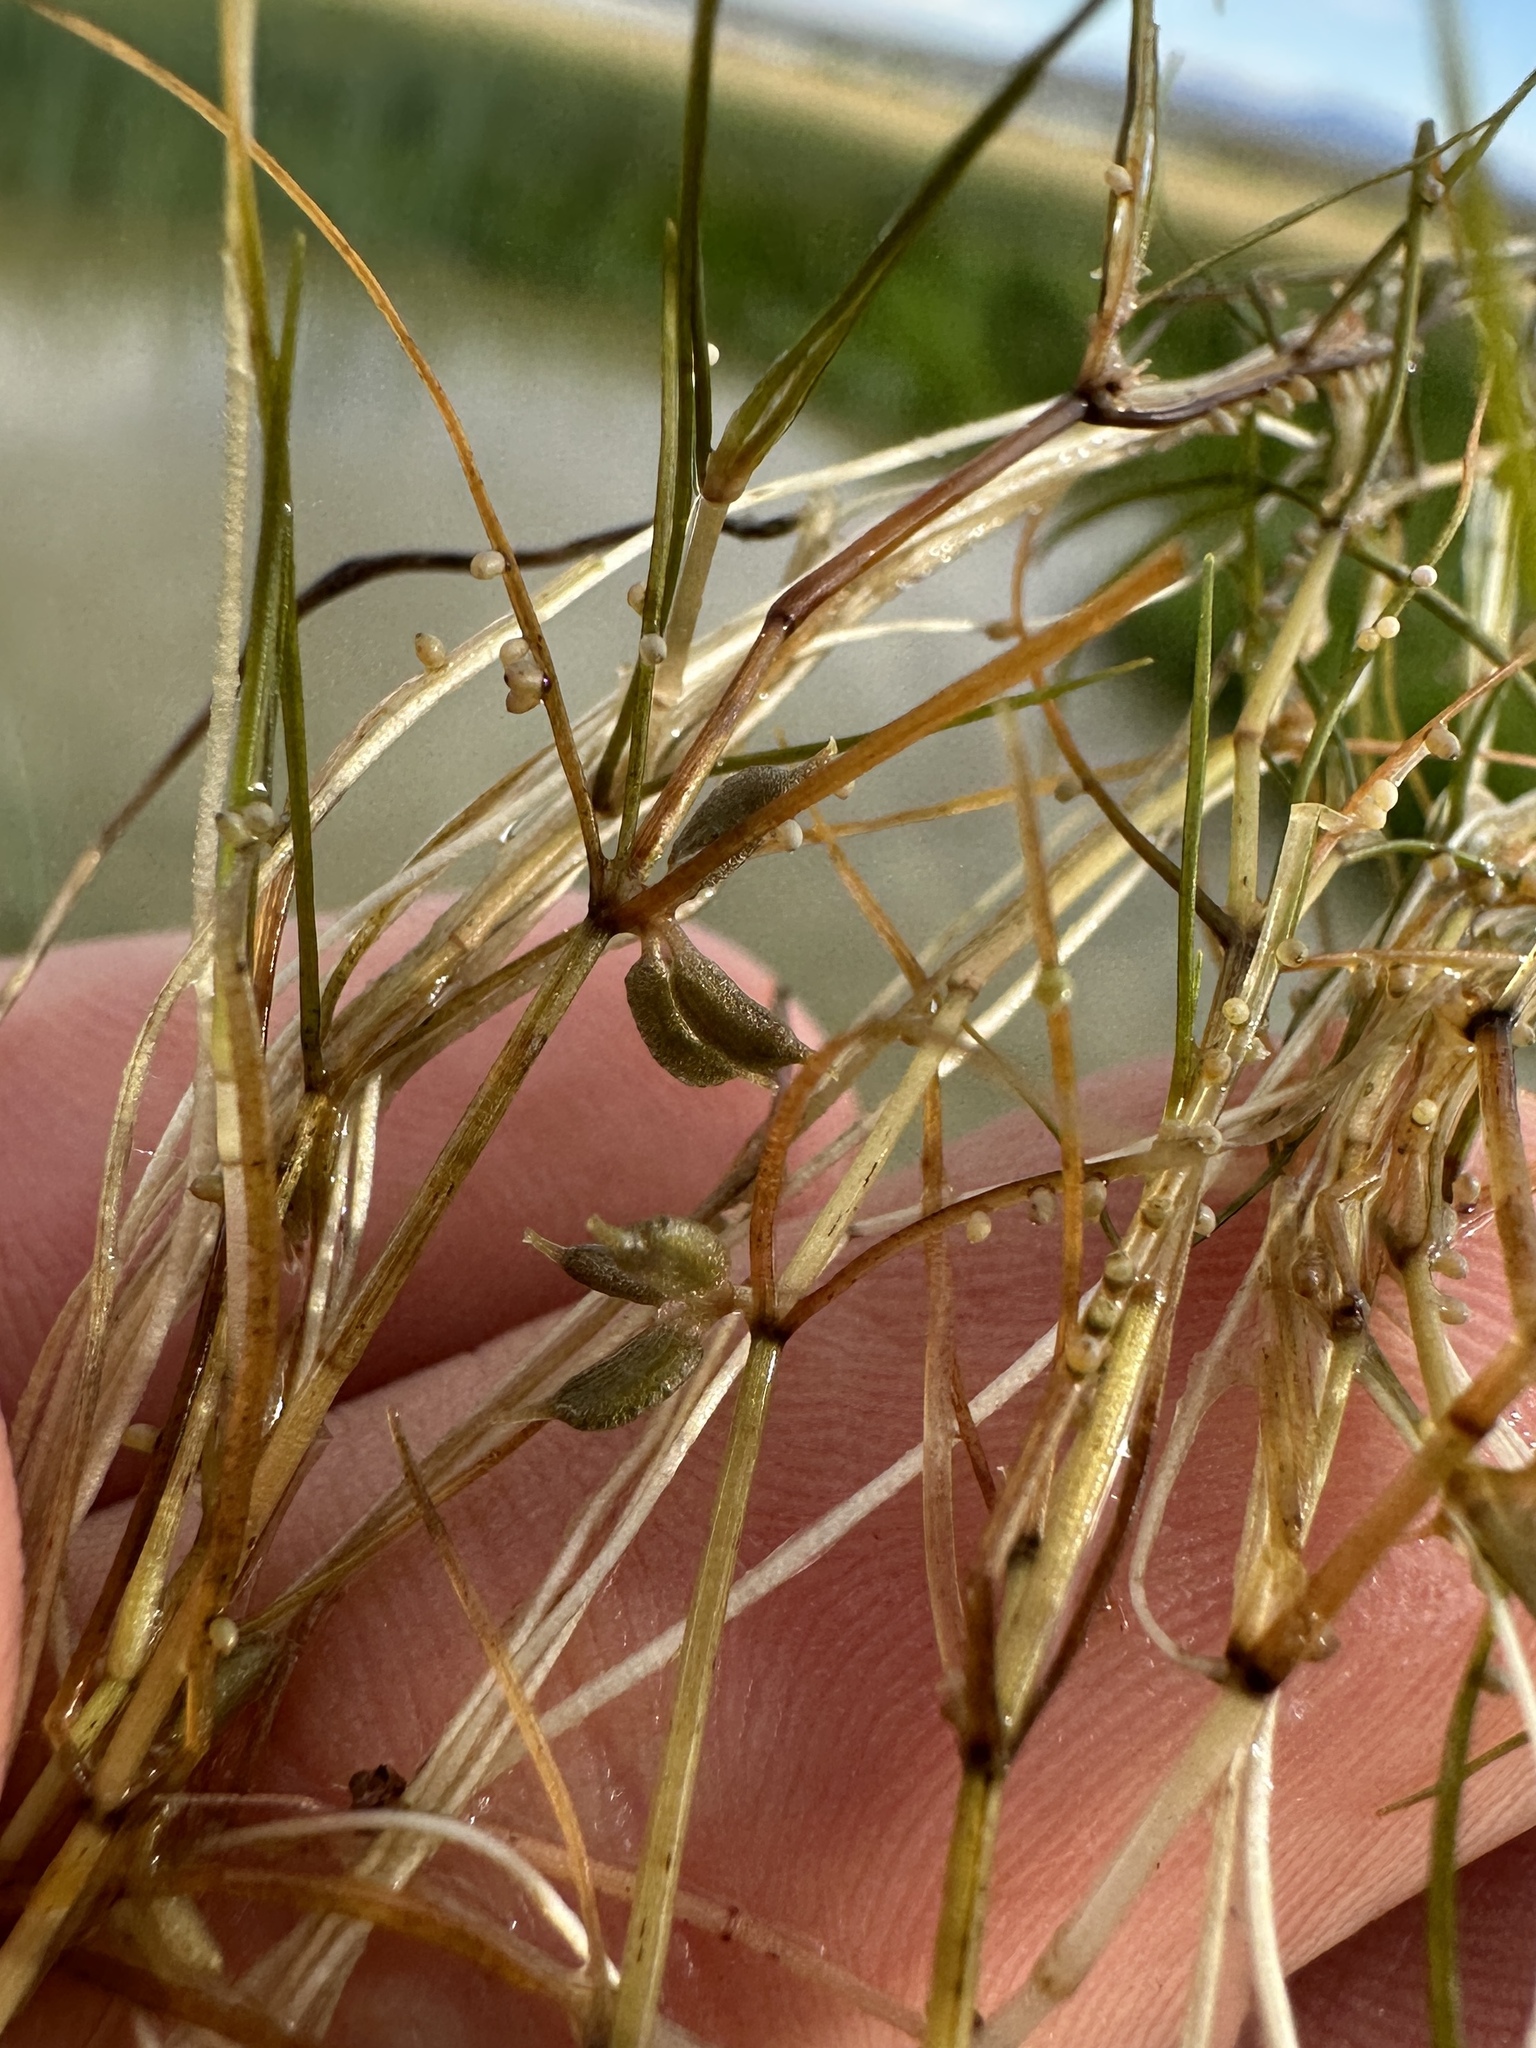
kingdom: Plantae
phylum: Tracheophyta
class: Liliopsida
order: Alismatales
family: Potamogetonaceae
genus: Zannichellia
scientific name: Zannichellia palustris
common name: Horned pondweed
